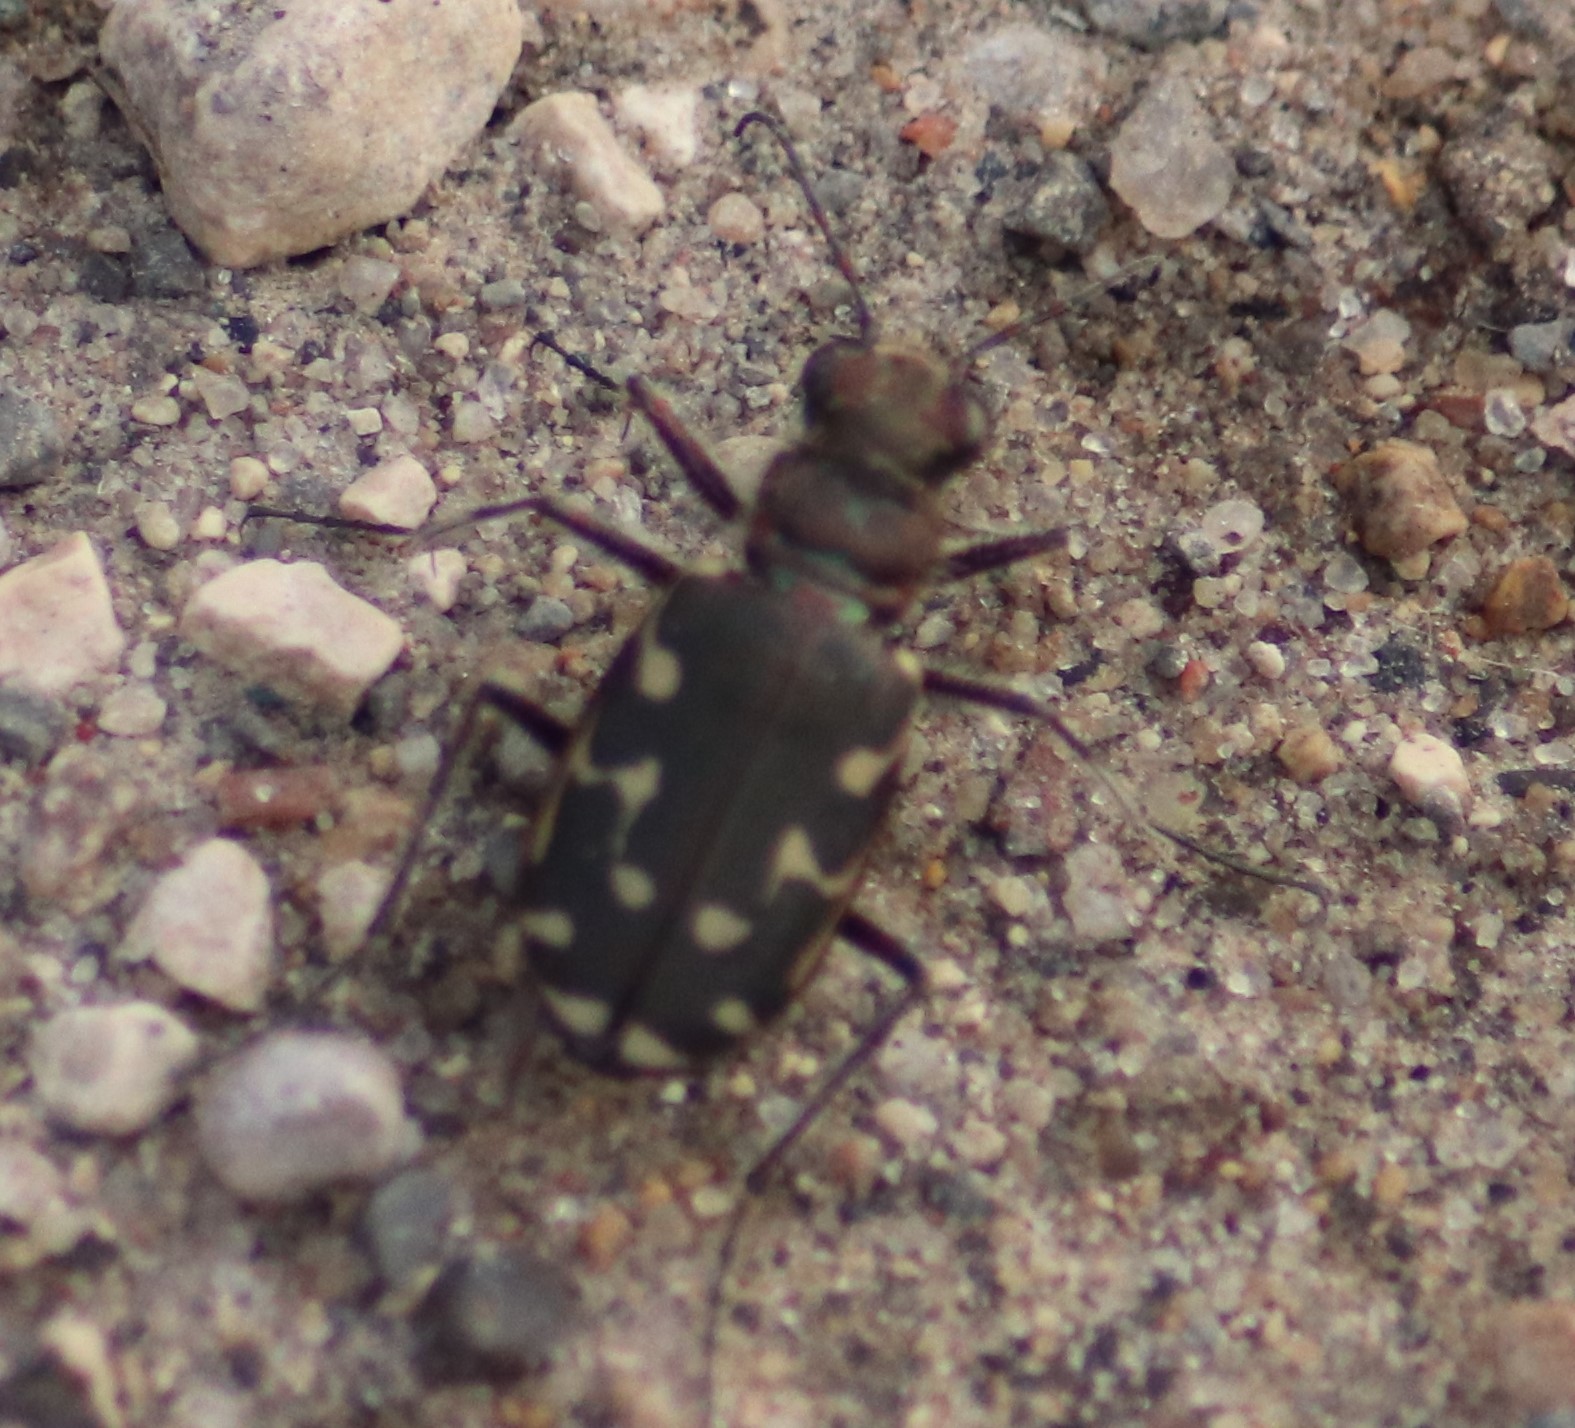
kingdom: Animalia
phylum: Arthropoda
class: Insecta
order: Coleoptera
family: Carabidae
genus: Cicindela
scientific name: Cicindela duodecimguttata
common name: Twelve-spotted tiger beetle
